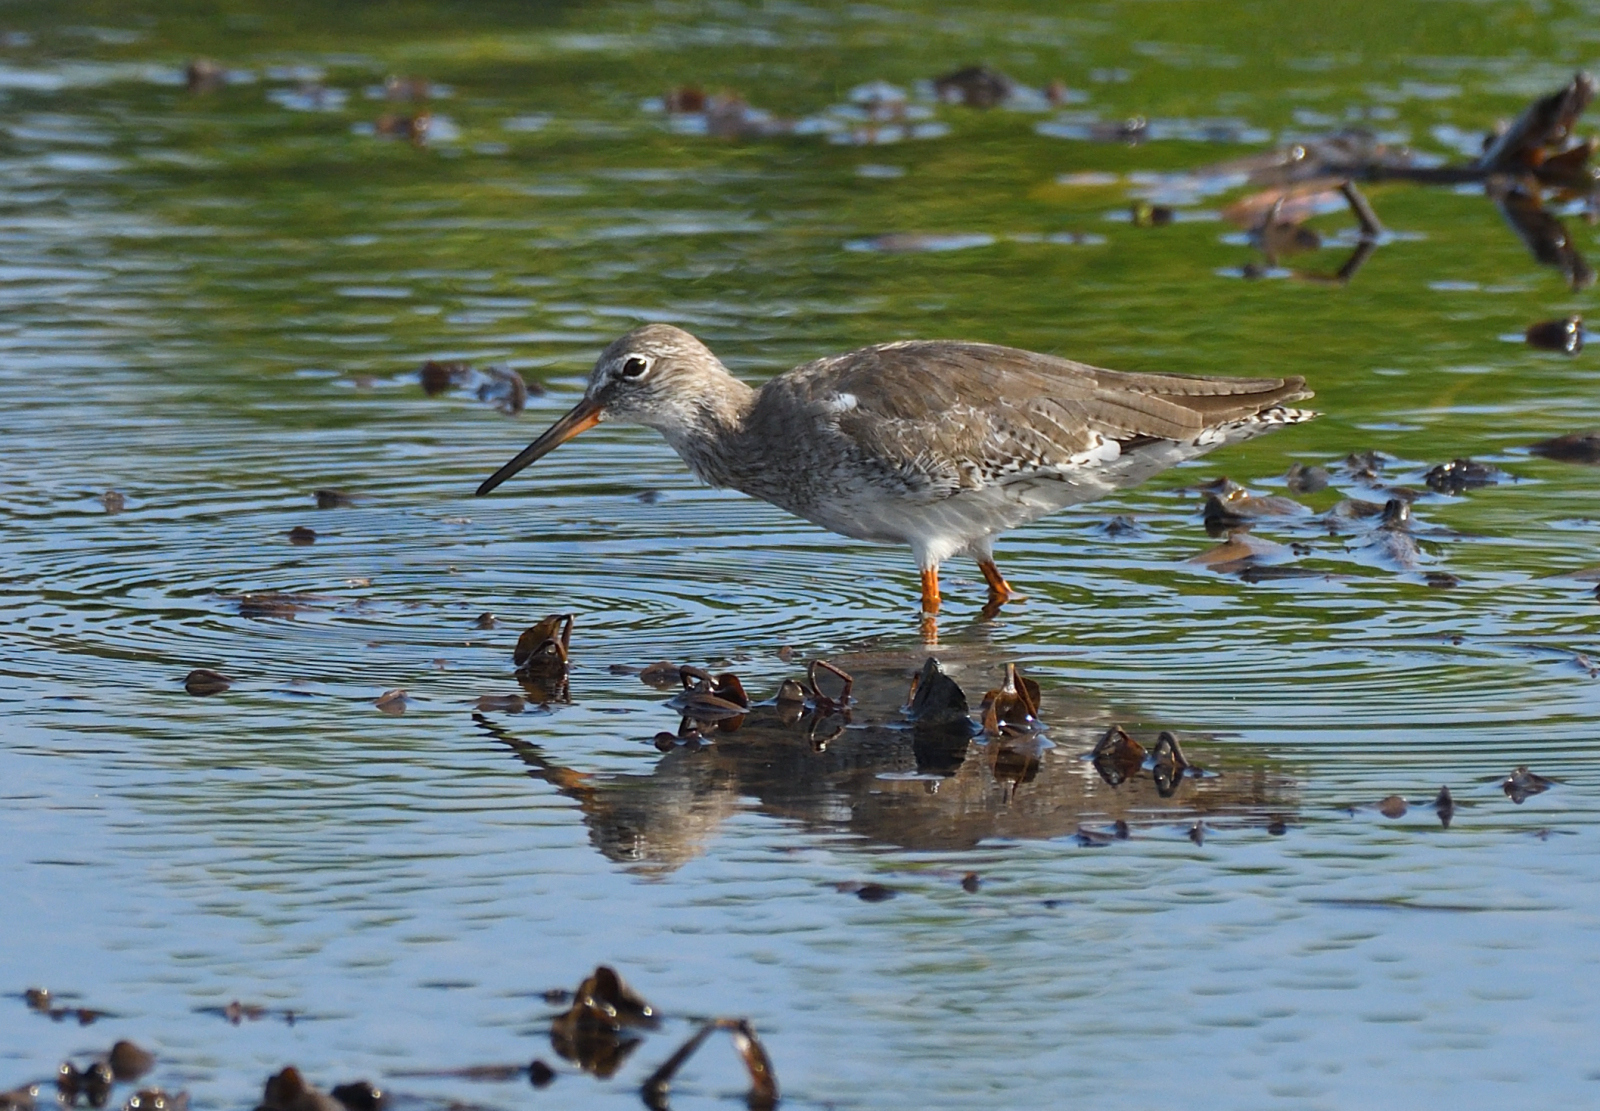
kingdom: Animalia
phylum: Chordata
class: Aves
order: Charadriiformes
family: Scolopacidae
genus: Tringa
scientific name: Tringa totanus
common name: Common redshank
